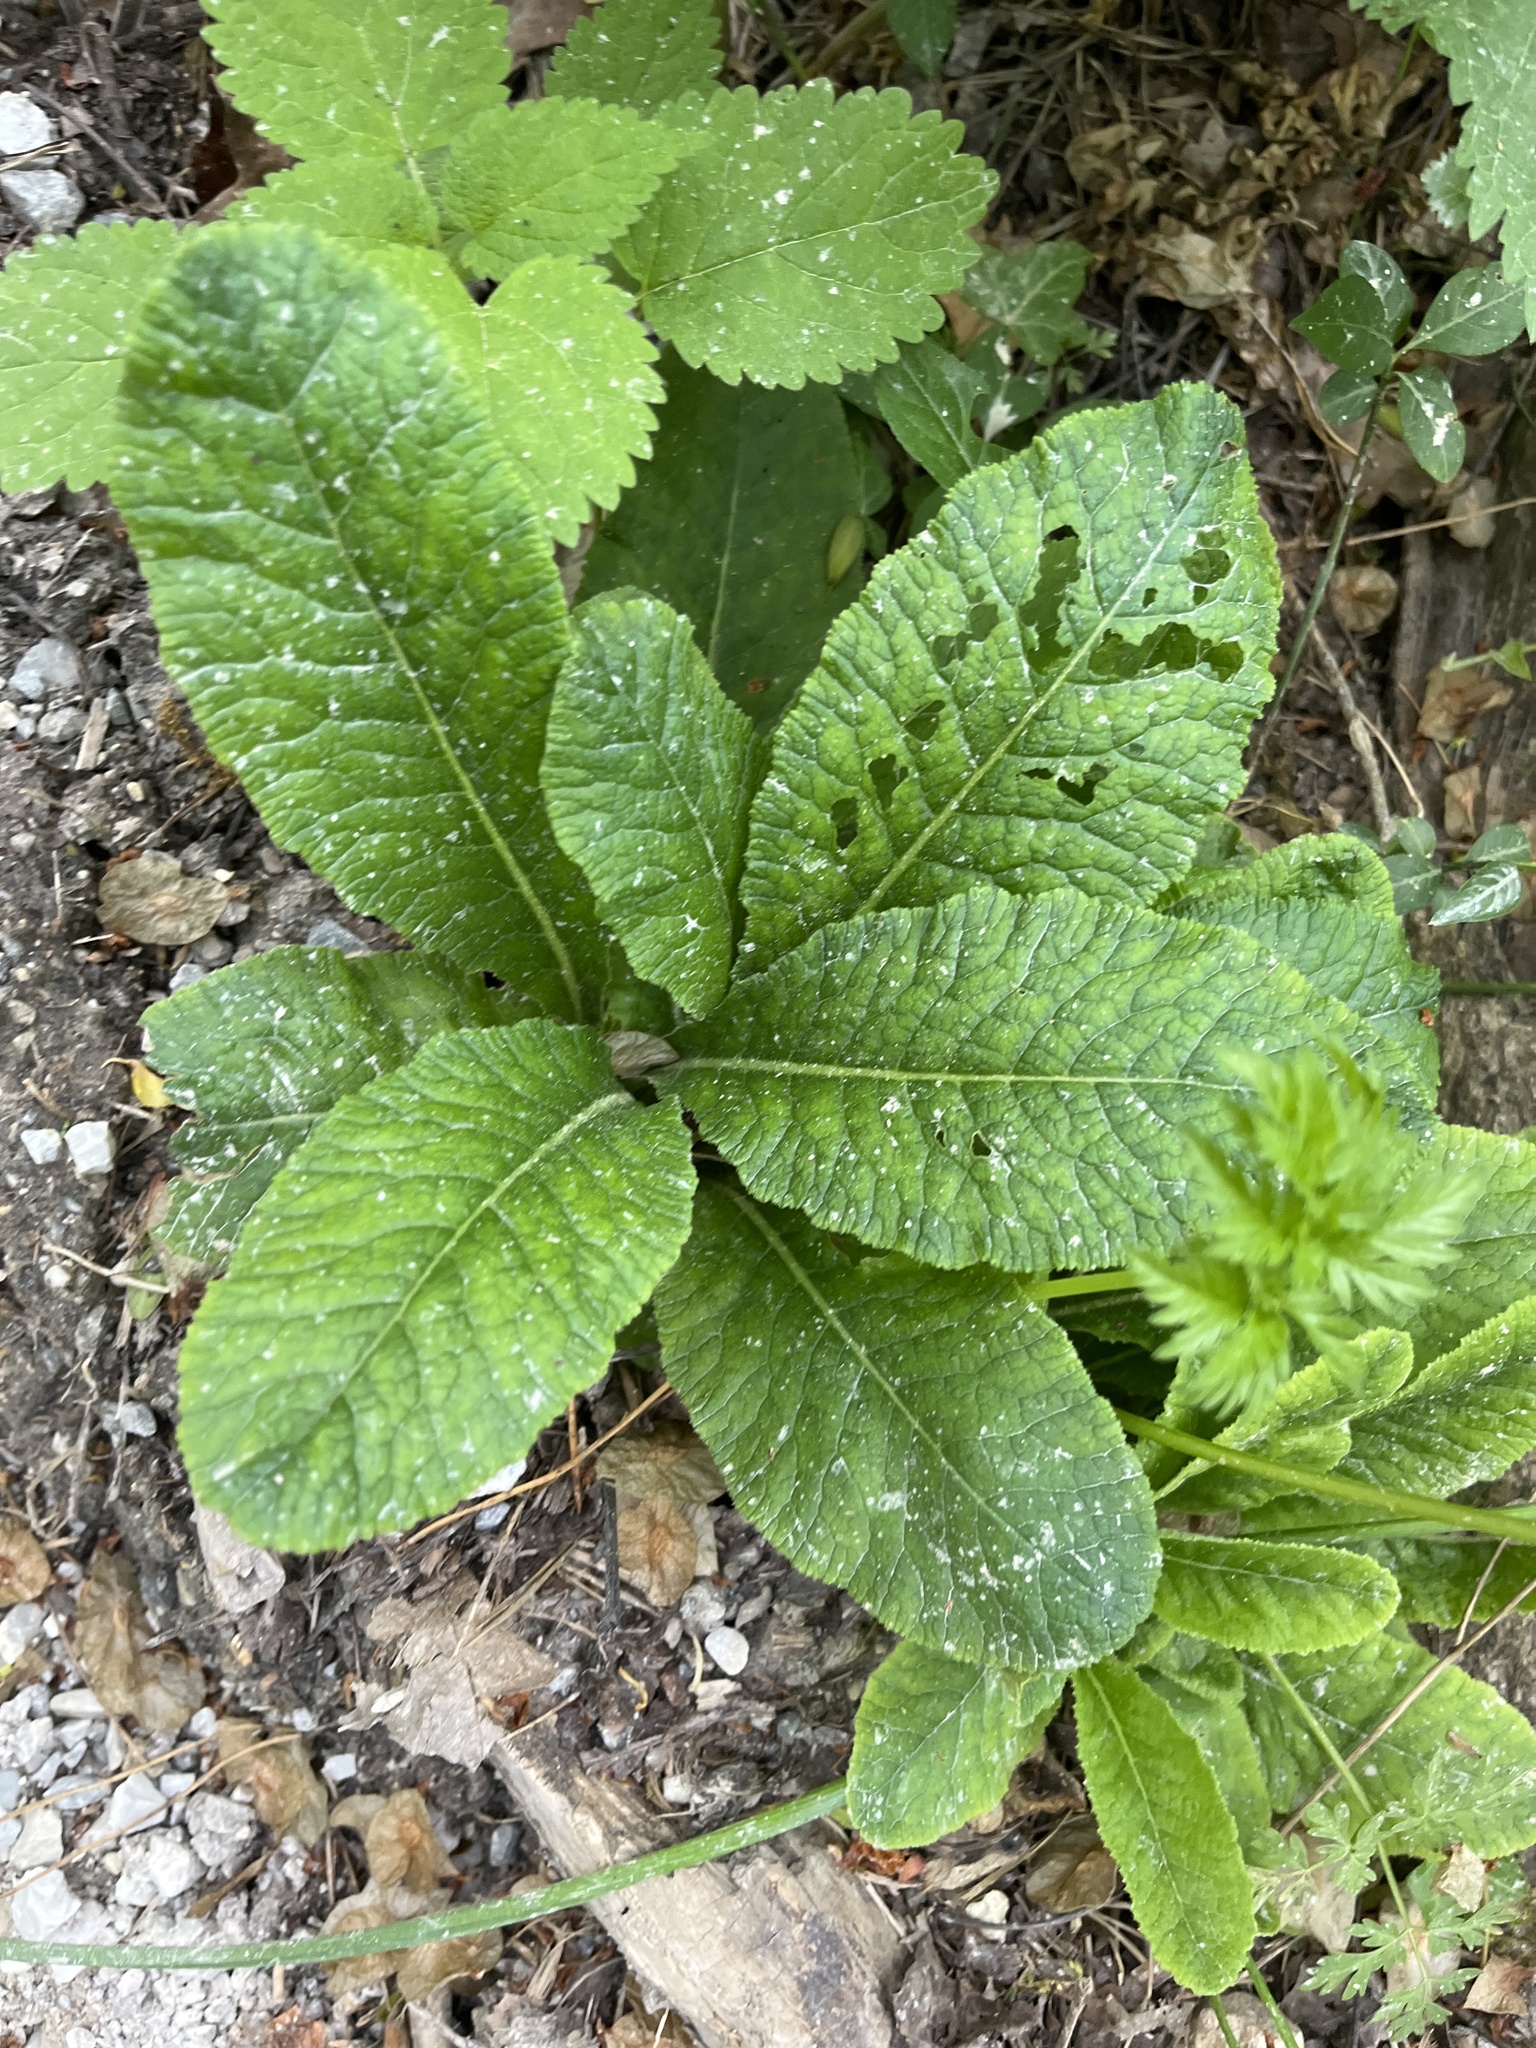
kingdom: Plantae
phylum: Tracheophyta
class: Magnoliopsida
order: Ericales
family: Primulaceae
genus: Primula
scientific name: Primula vulgaris
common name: Primrose
